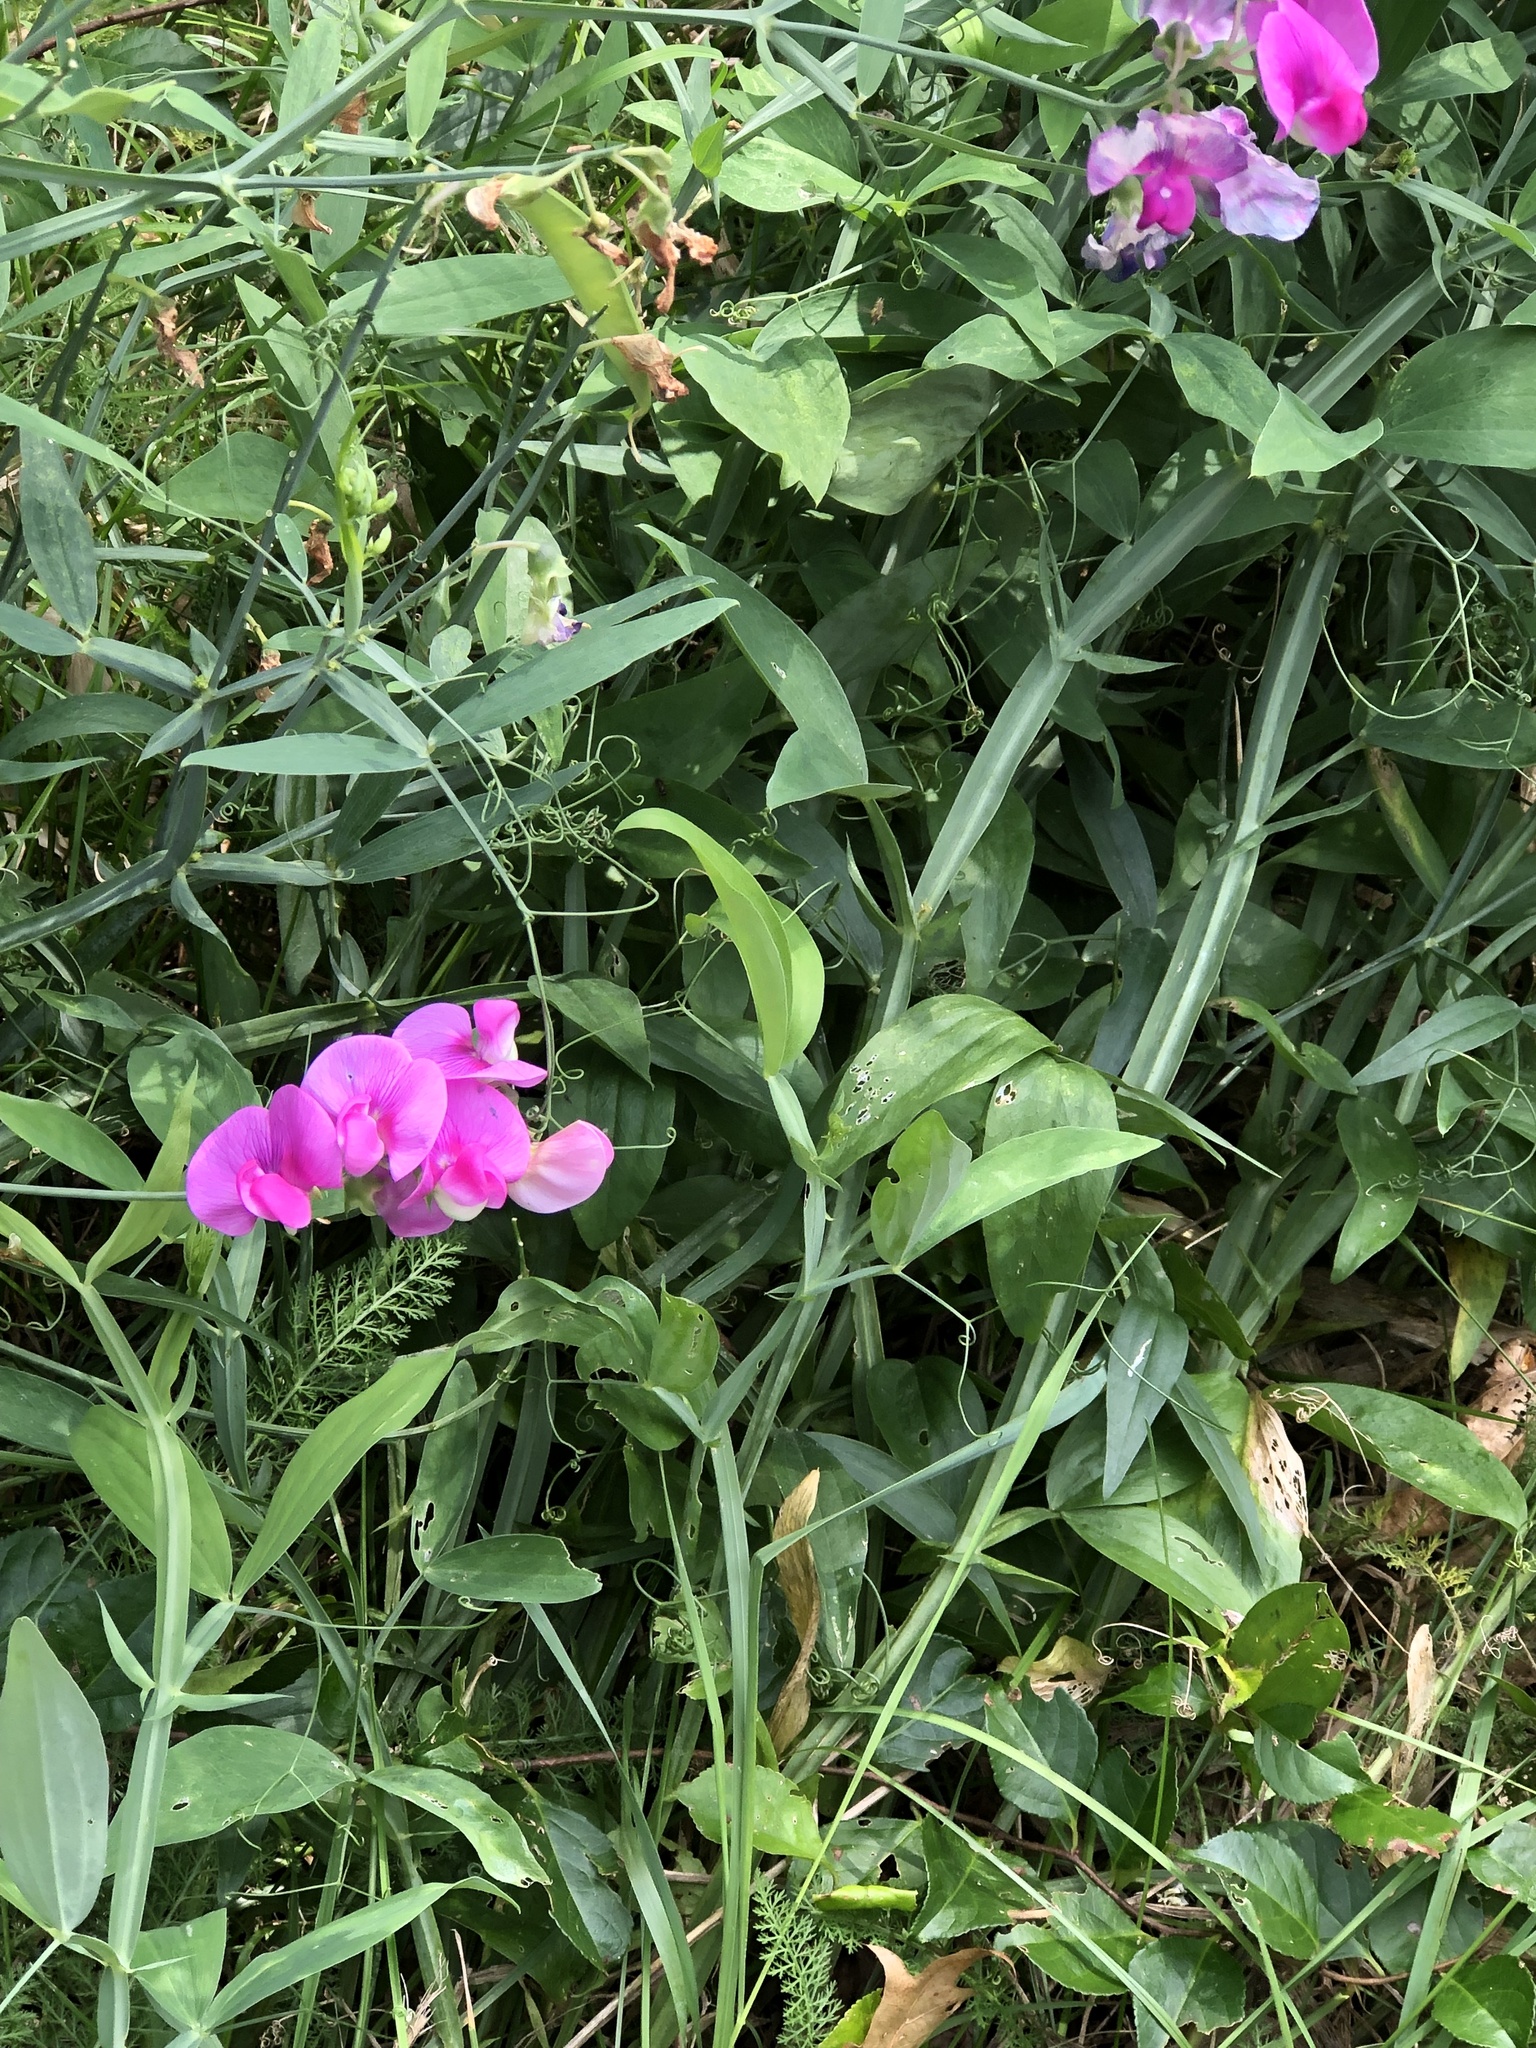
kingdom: Plantae
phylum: Tracheophyta
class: Magnoliopsida
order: Fabales
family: Fabaceae
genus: Lathyrus
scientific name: Lathyrus latifolius
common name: Perennial pea
